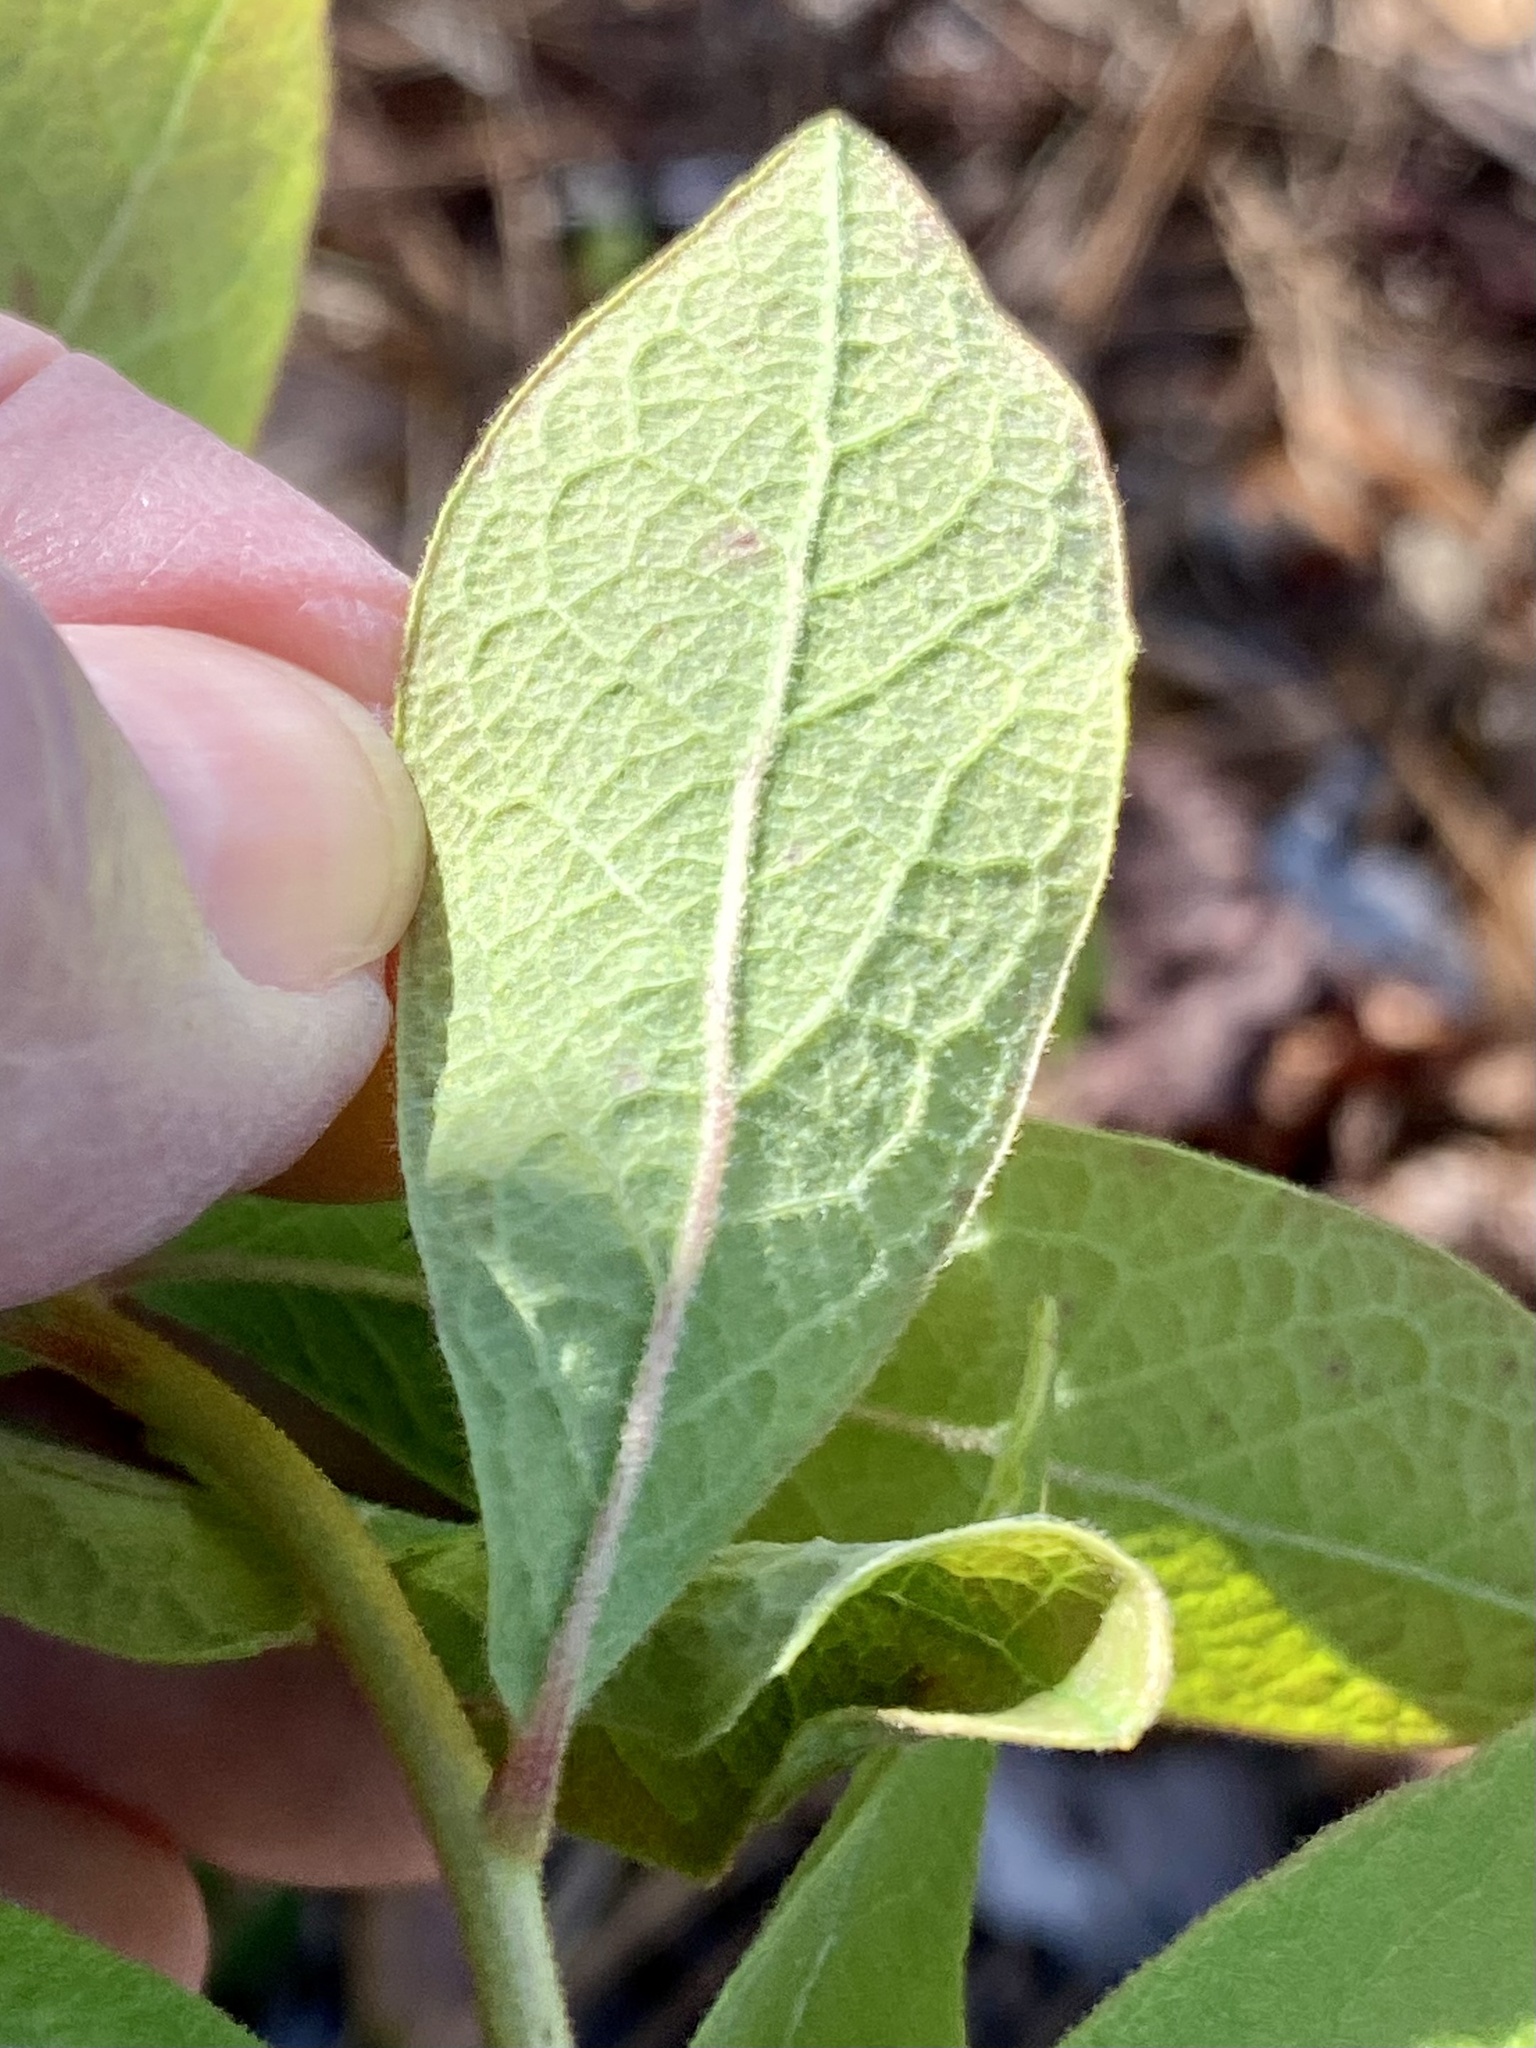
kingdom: Plantae
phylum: Tracheophyta
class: Magnoliopsida
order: Ericales
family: Ericaceae
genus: Gaylussacia
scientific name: Gaylussacia tomentosa
